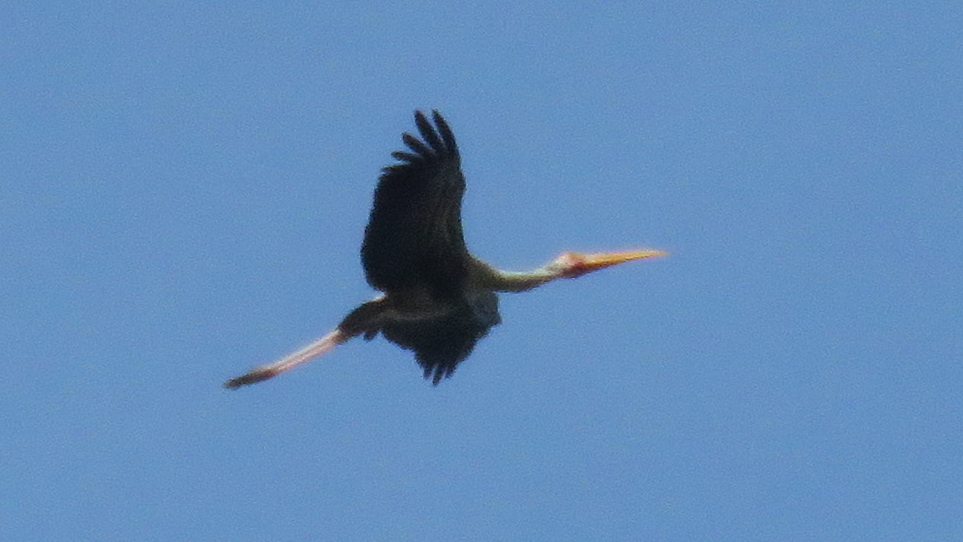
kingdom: Animalia
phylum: Chordata
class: Aves
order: Ciconiiformes
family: Ciconiidae
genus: Mycteria
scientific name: Mycteria leucocephala
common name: Painted stork
